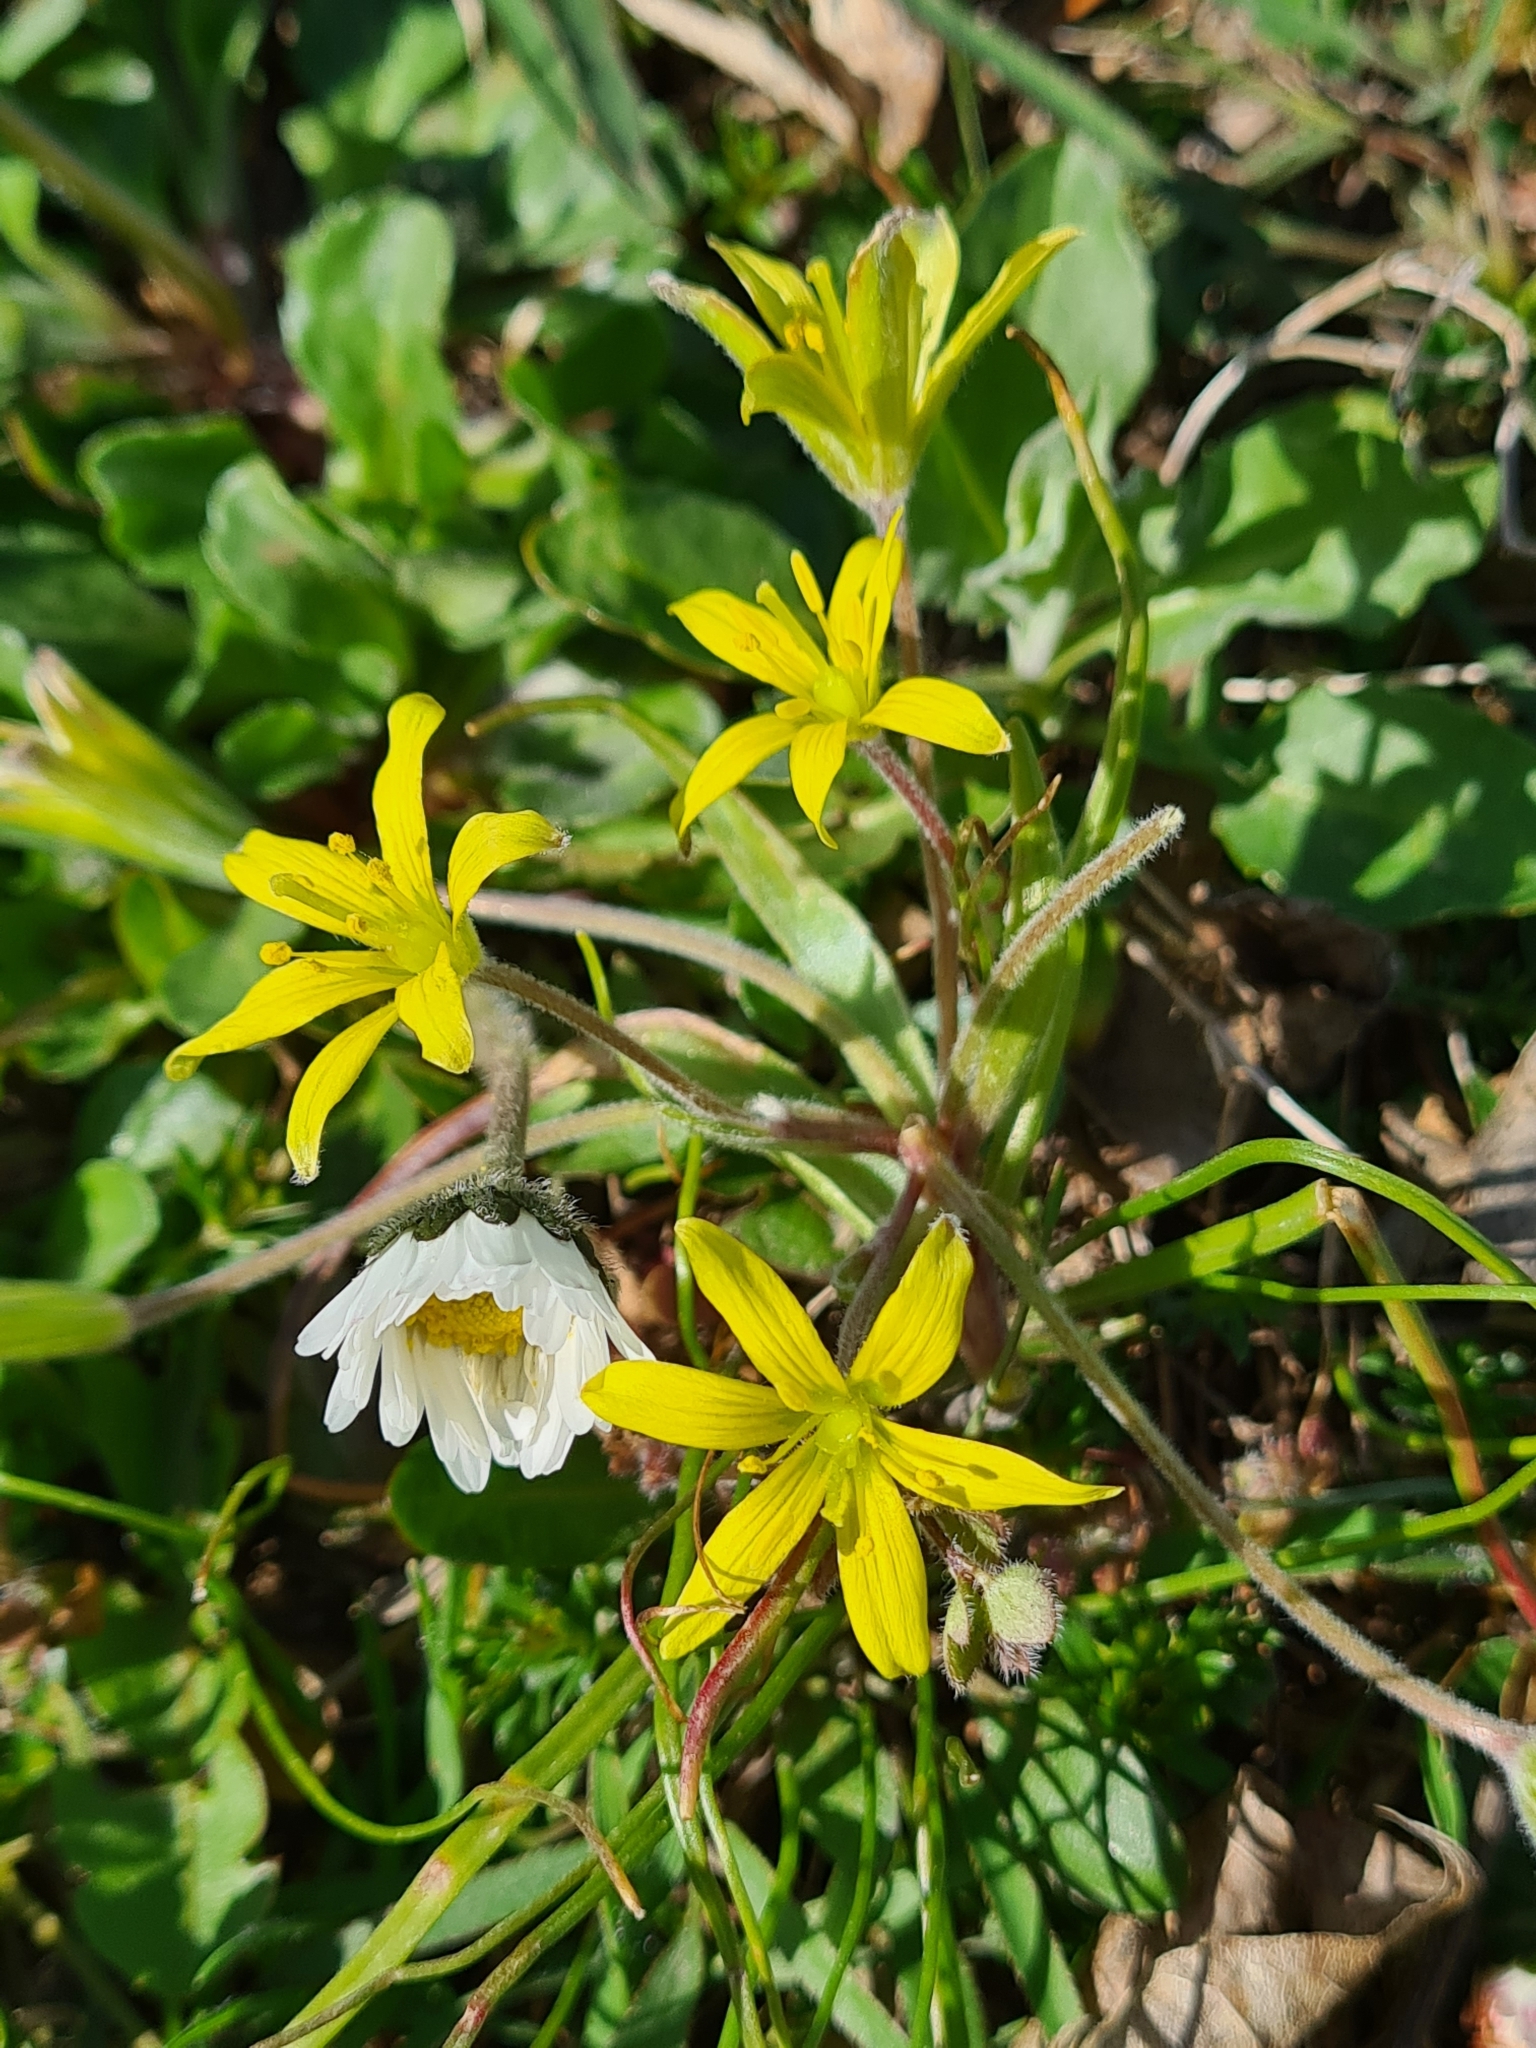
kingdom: Plantae
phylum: Tracheophyta
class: Liliopsida
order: Liliales
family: Liliaceae
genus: Gagea
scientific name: Gagea villosa
